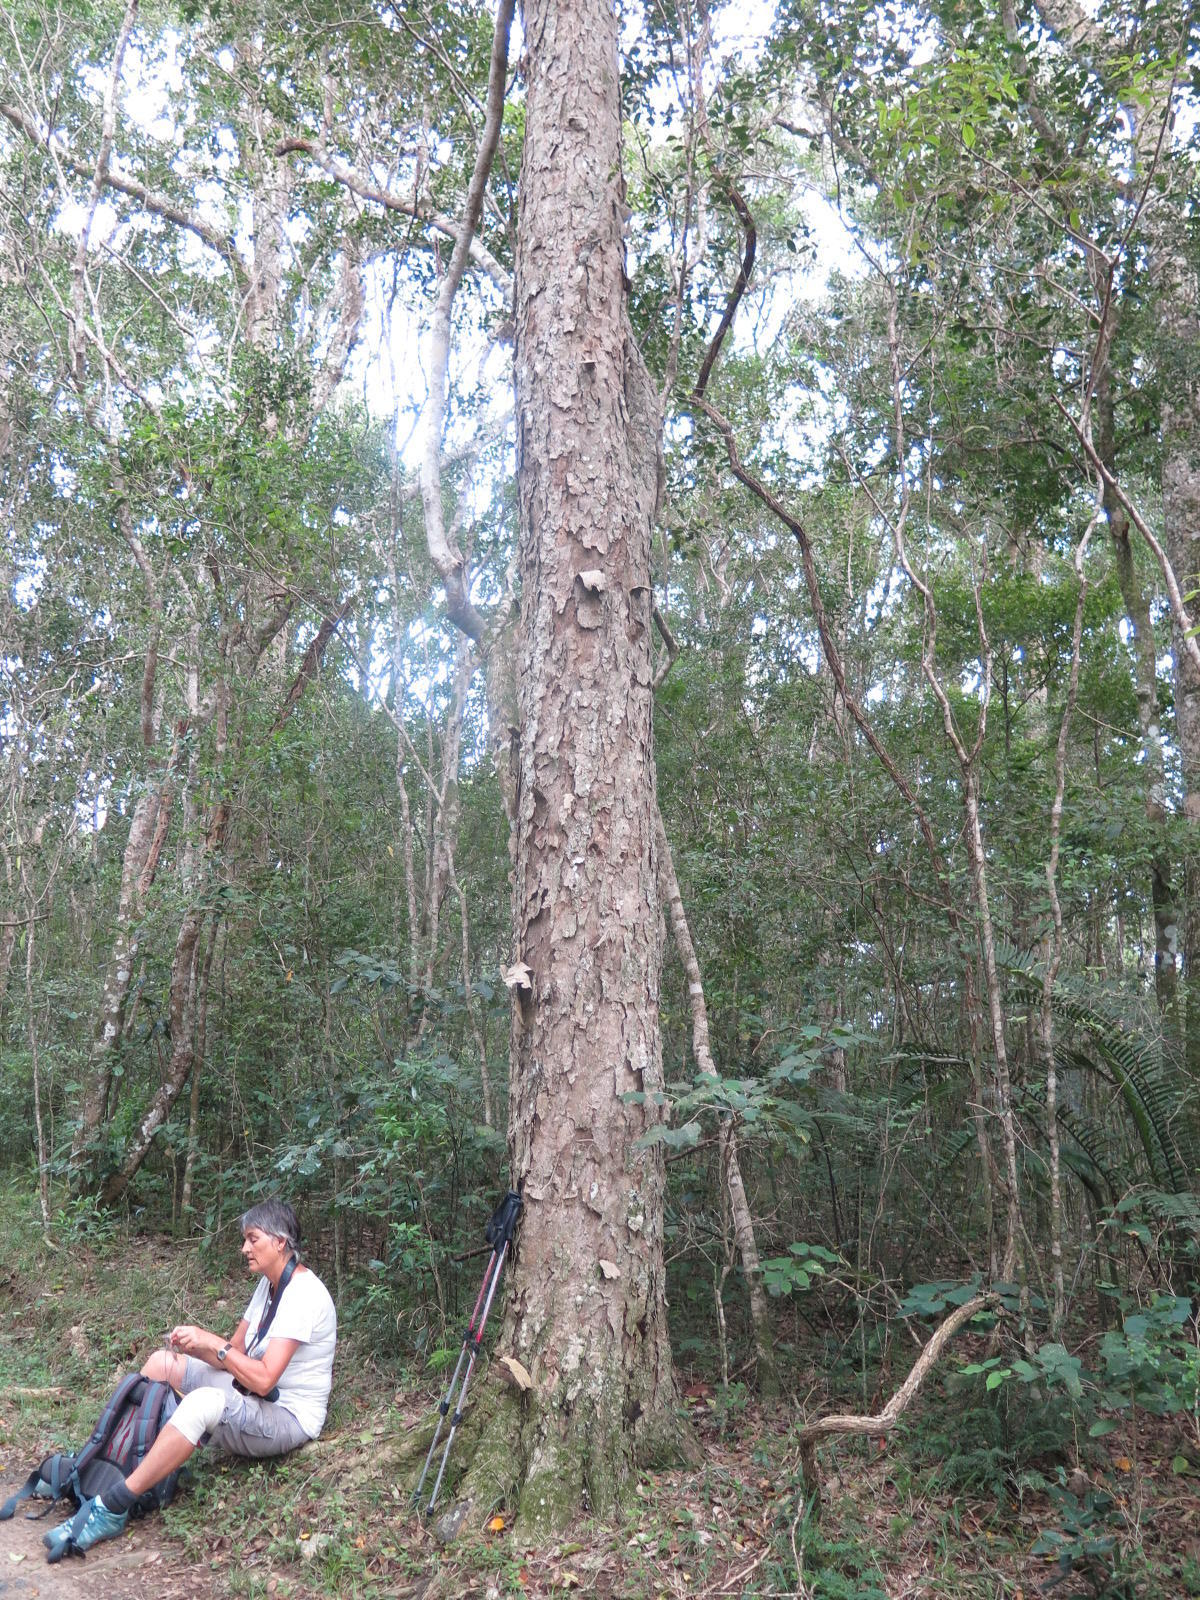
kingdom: Plantae
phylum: Tracheophyta
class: Magnoliopsida
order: Malpighiales
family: Phyllanthaceae
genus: Heywoodia
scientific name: Heywoodia lucens
